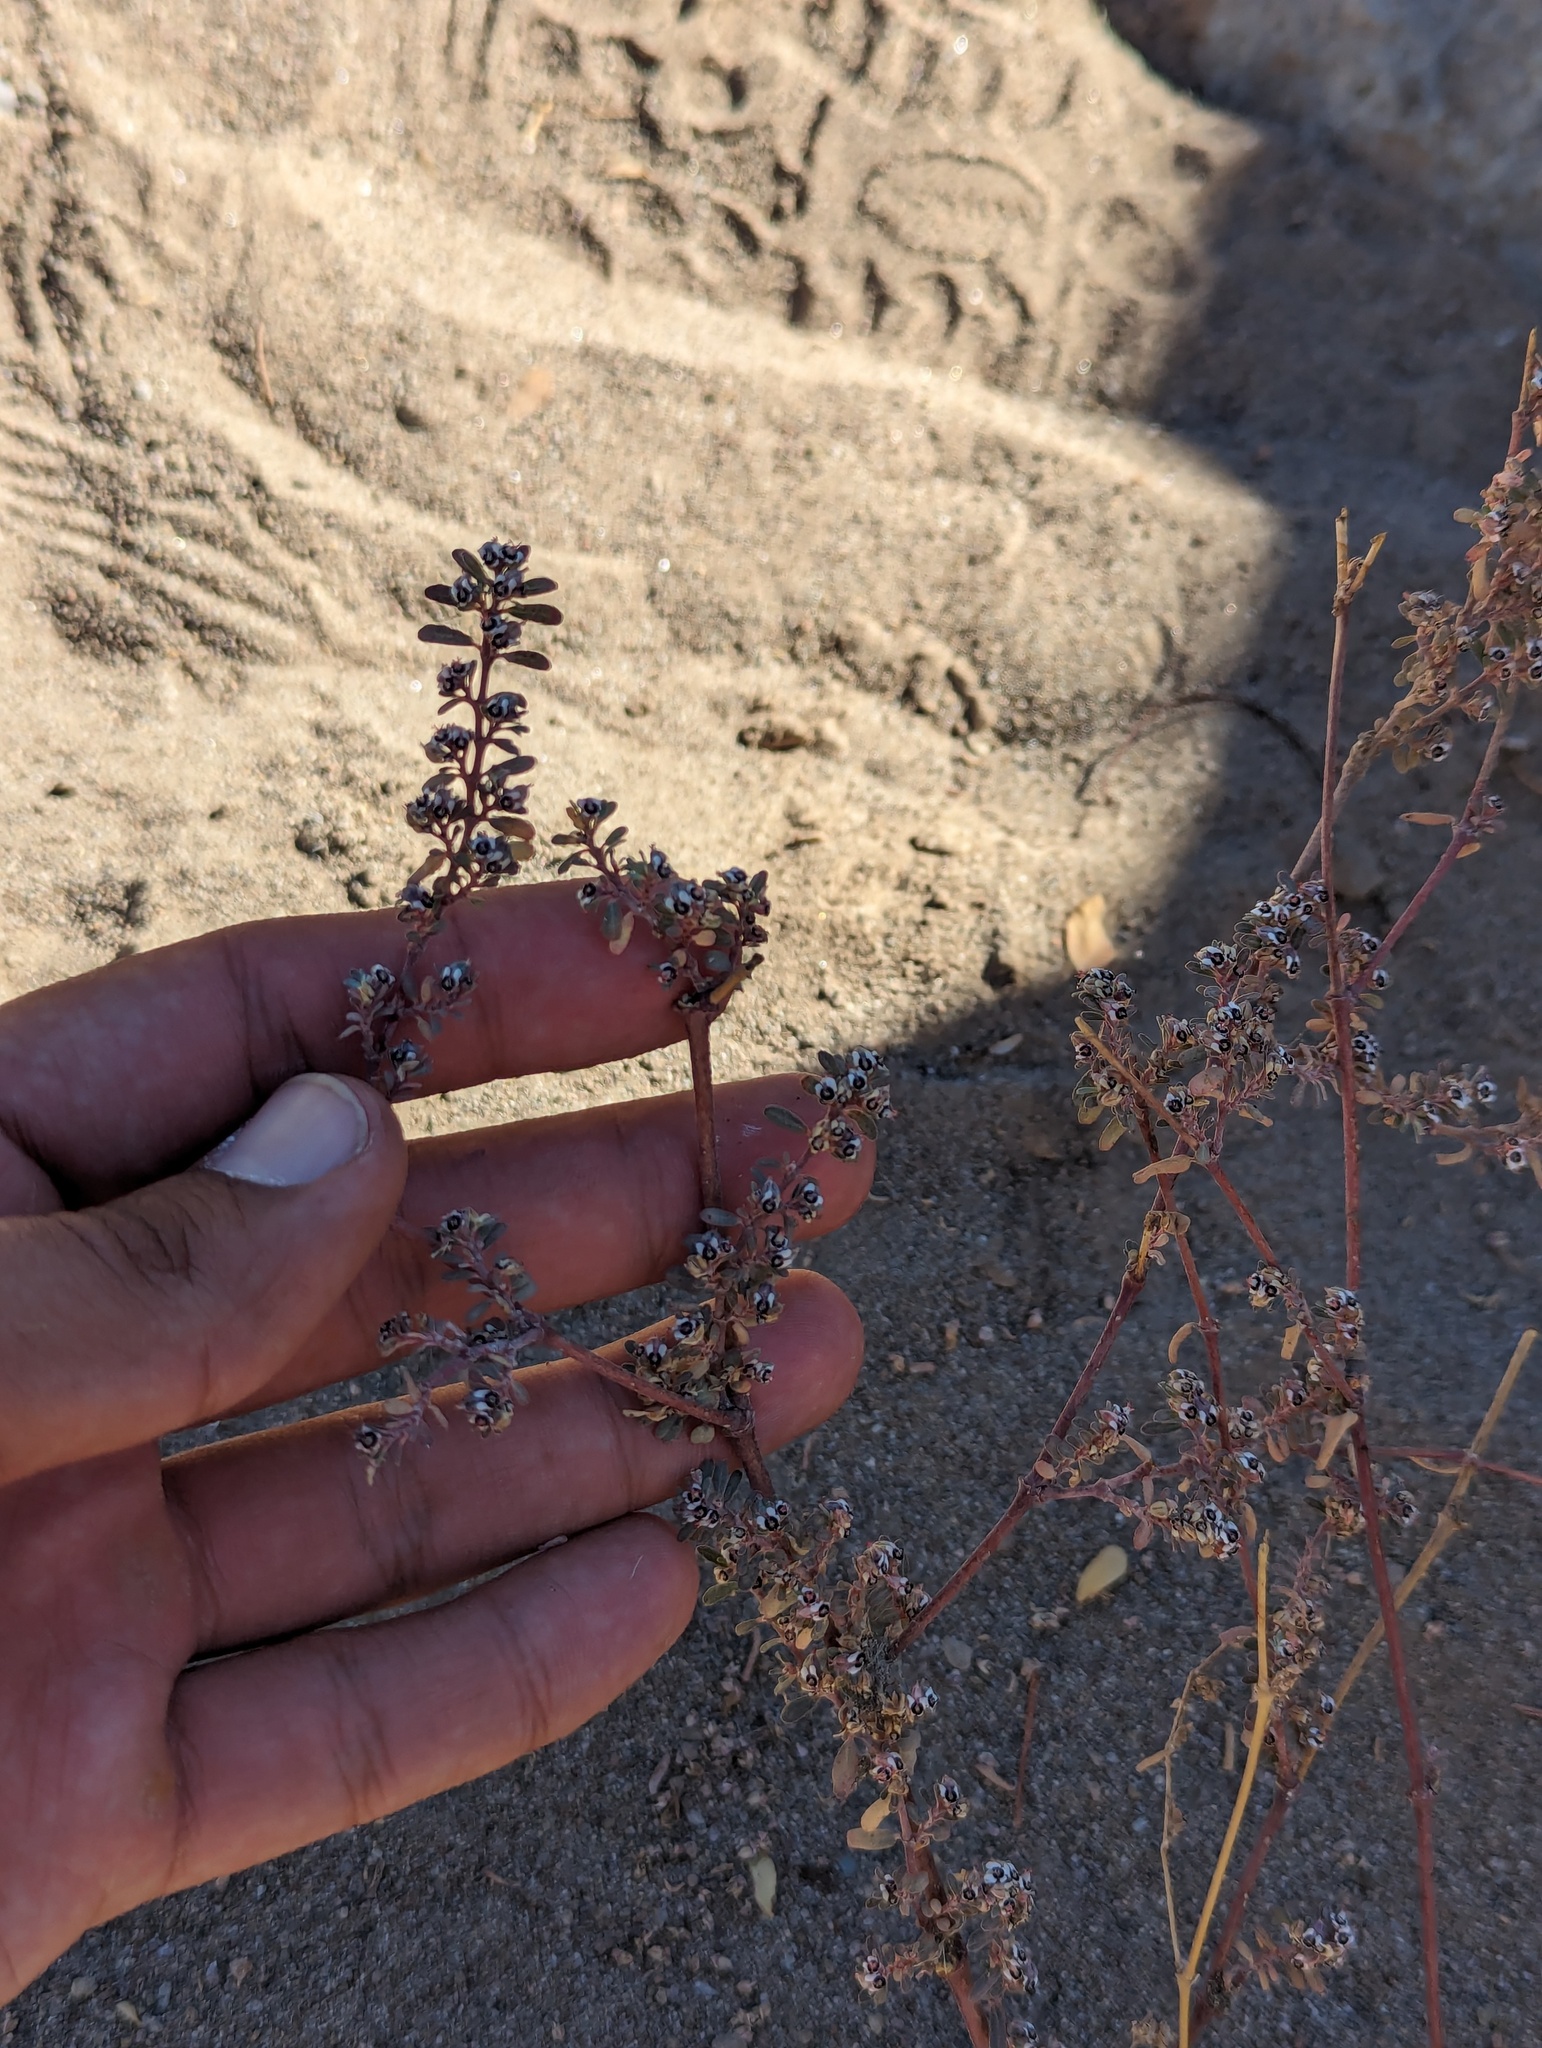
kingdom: Plantae
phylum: Tracheophyta
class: Magnoliopsida
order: Malpighiales
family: Euphorbiaceae
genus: Euphorbia
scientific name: Euphorbia pediculifera
